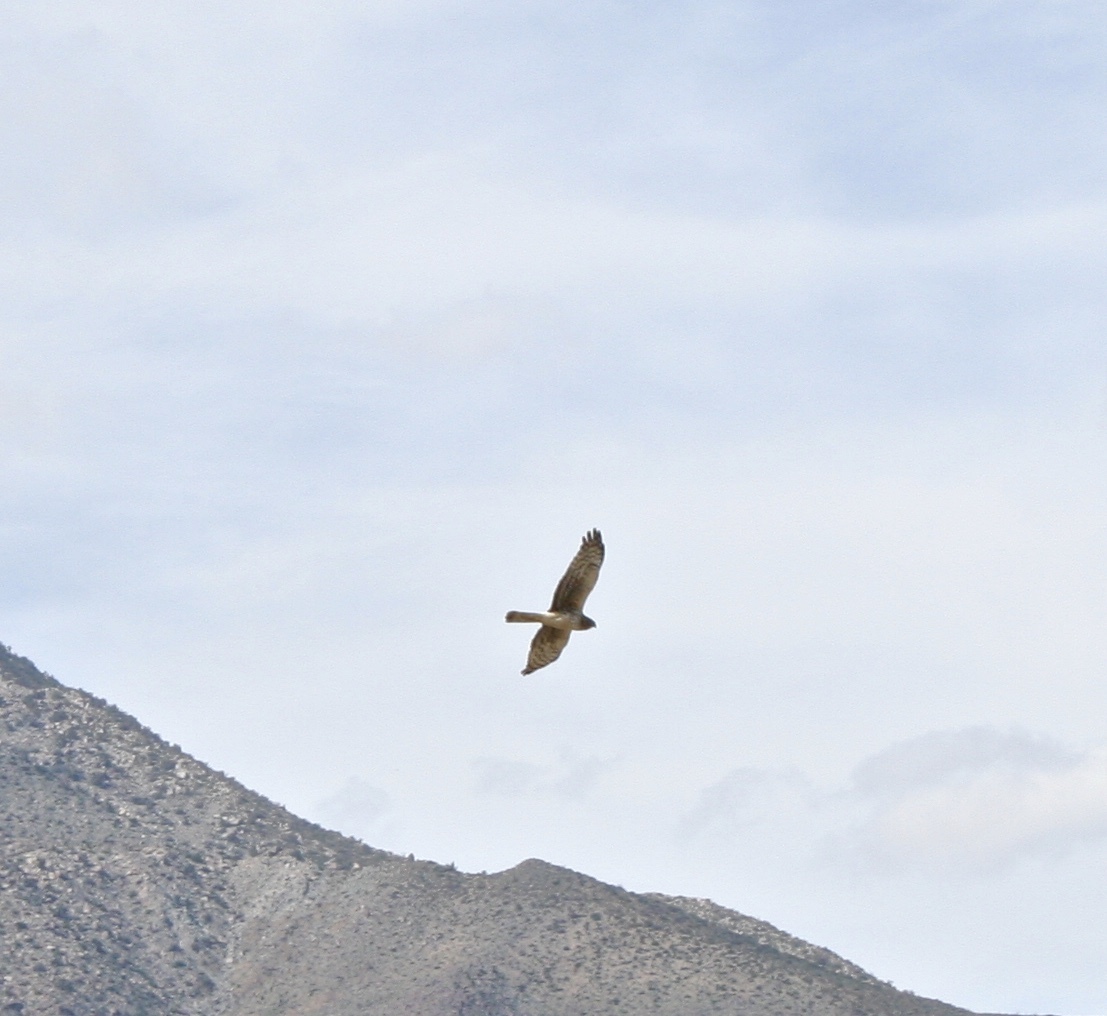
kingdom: Animalia
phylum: Chordata
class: Aves
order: Accipitriformes
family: Accipitridae
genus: Circus
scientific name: Circus cyaneus
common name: Hen harrier
